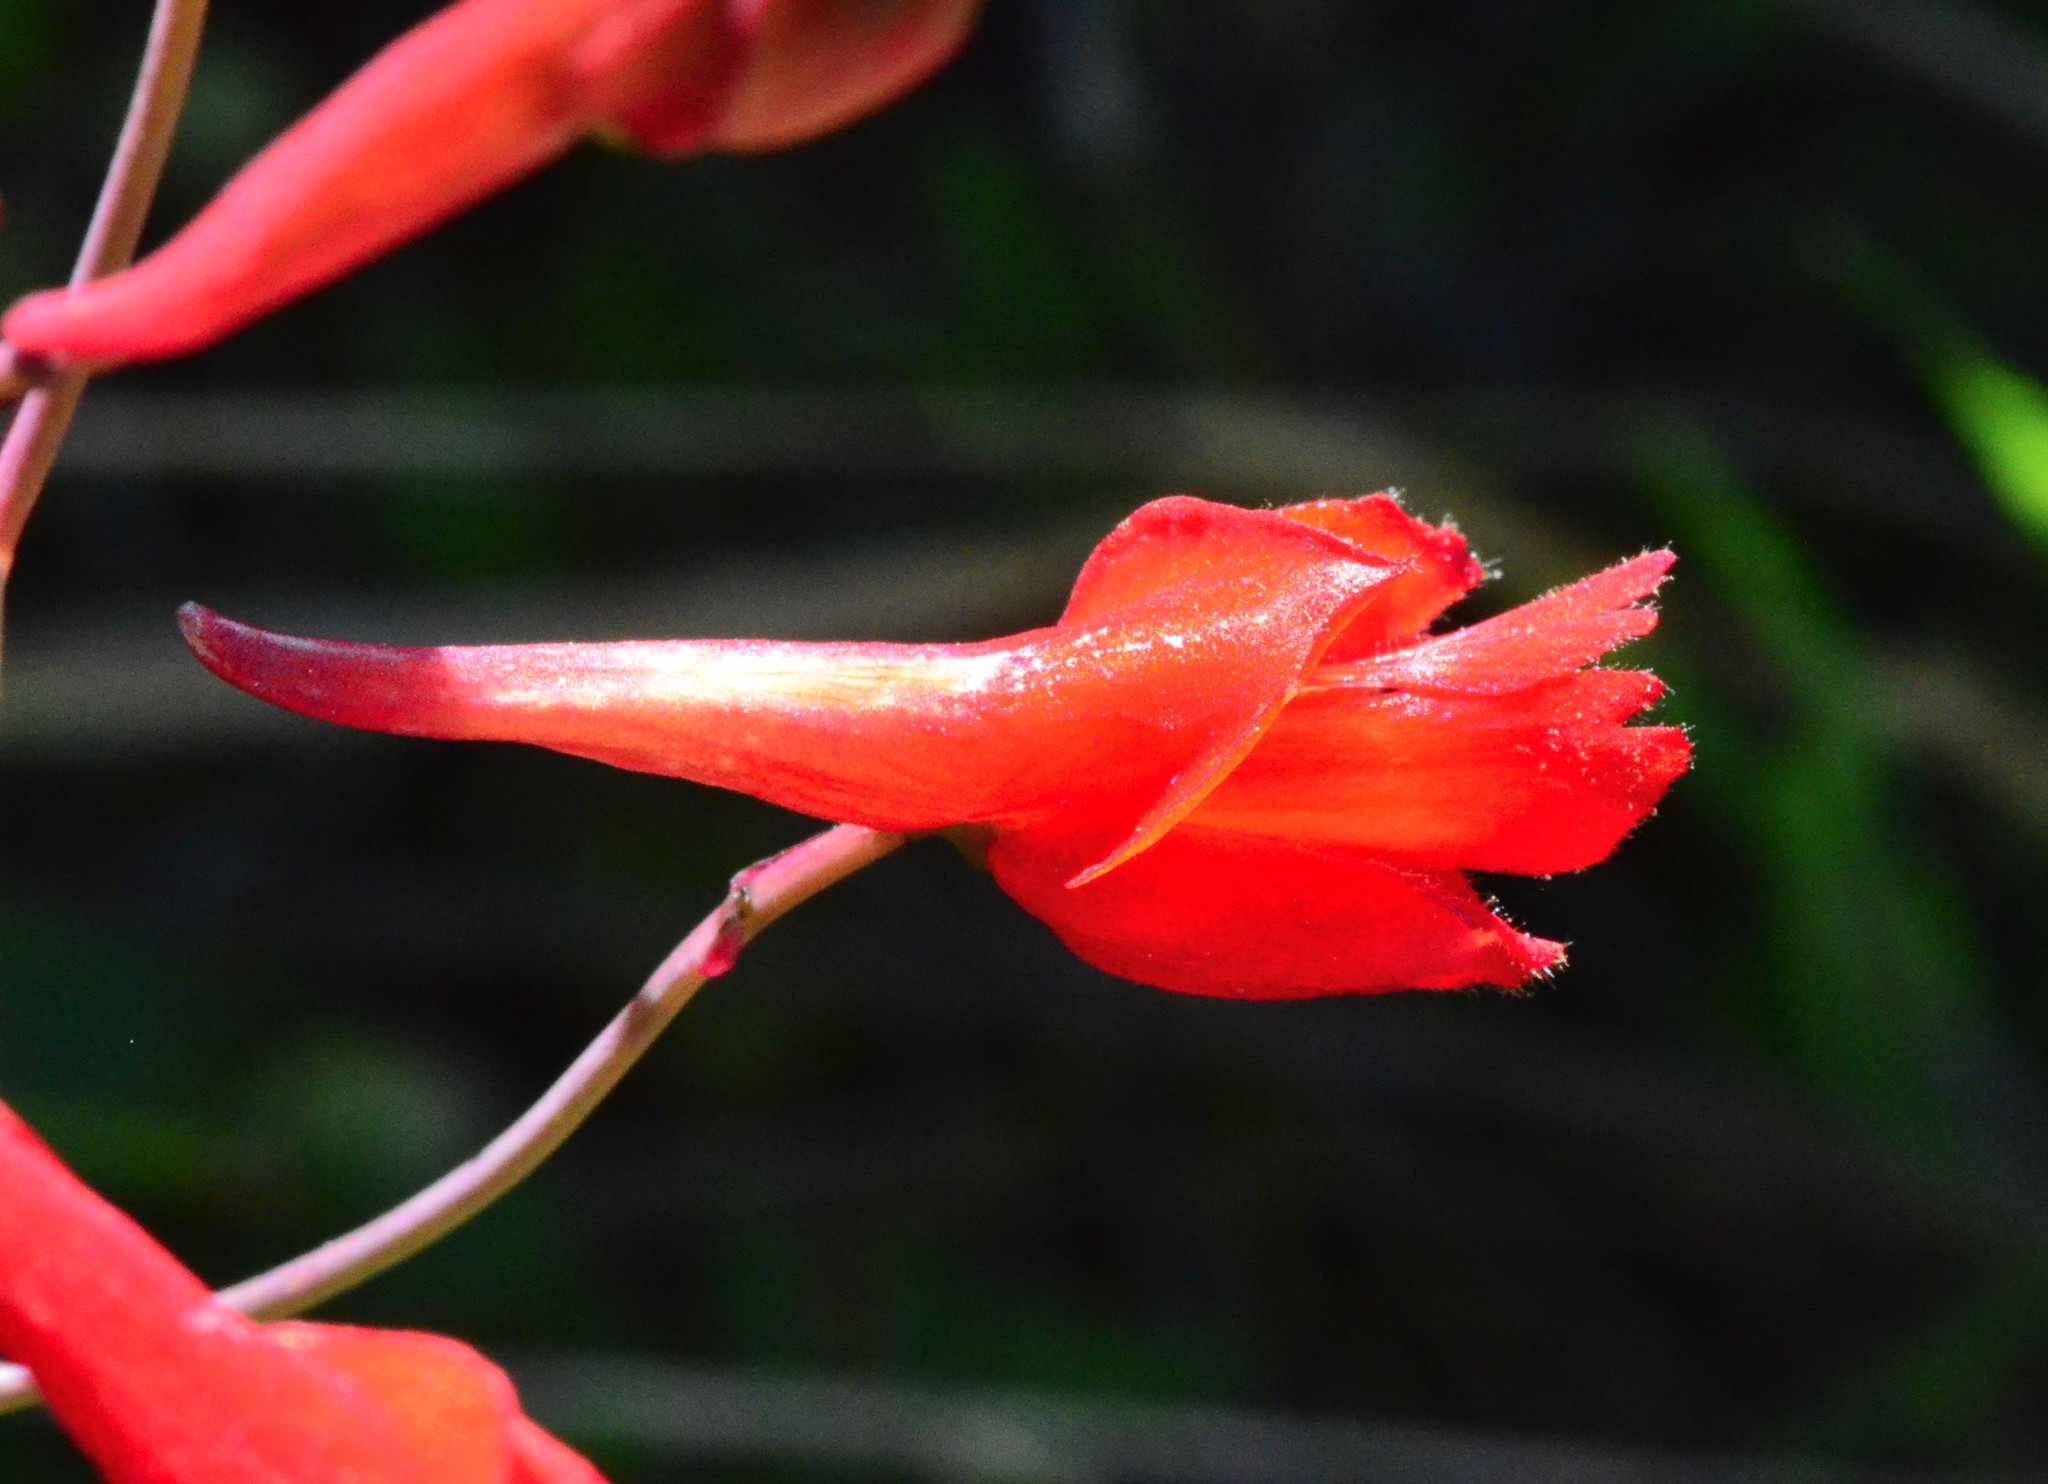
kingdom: Plantae
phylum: Tracheophyta
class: Magnoliopsida
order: Ranunculales
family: Ranunculaceae
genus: Delphinium
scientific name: Delphinium nudicaule
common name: Red larkspur
